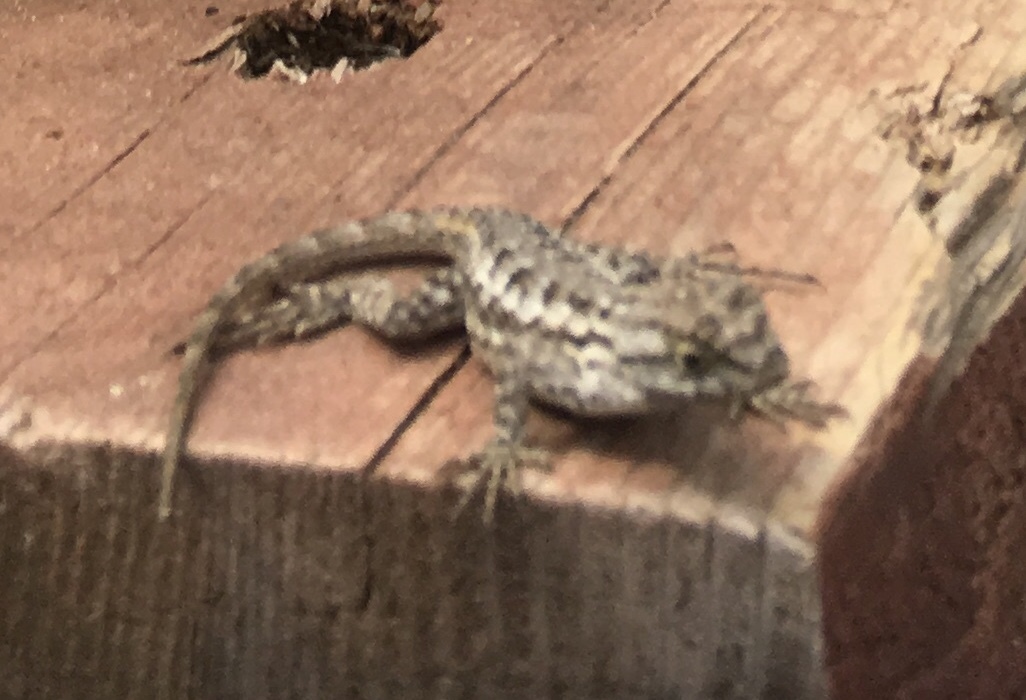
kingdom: Animalia
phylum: Chordata
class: Squamata
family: Phrynosomatidae
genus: Sceloporus
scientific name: Sceloporus occidentalis
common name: Western fence lizard
